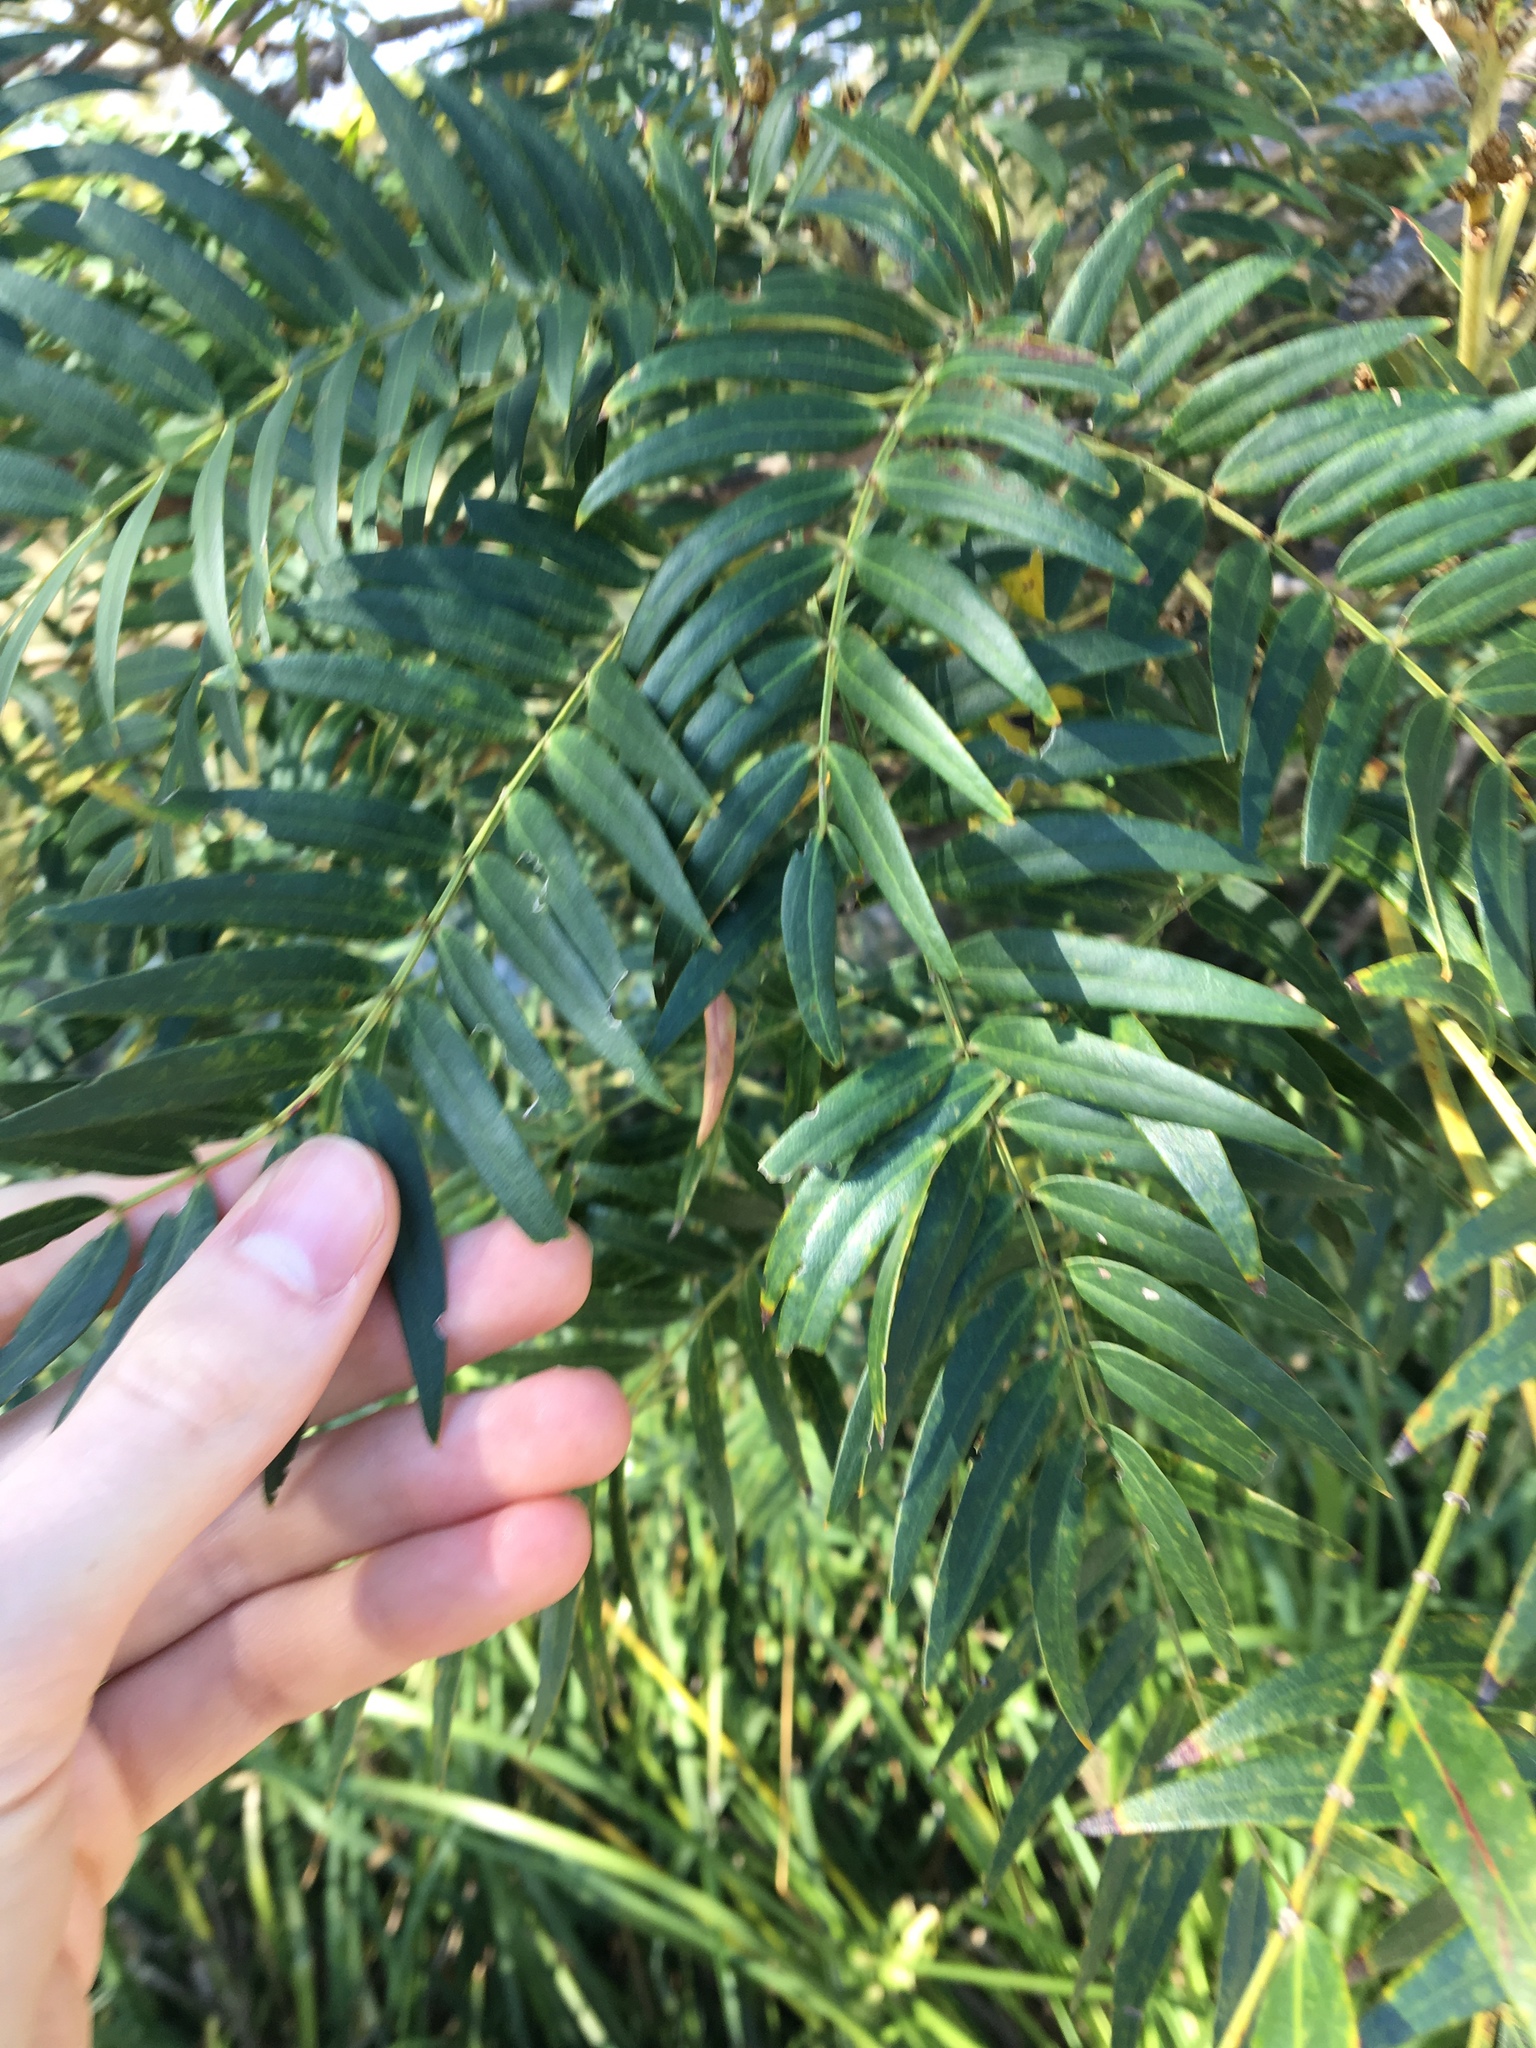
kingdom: Plantae
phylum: Tracheophyta
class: Magnoliopsida
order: Sapindales
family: Anacardiaceae
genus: Schinus
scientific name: Schinus molle
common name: Peruvian peppertree
